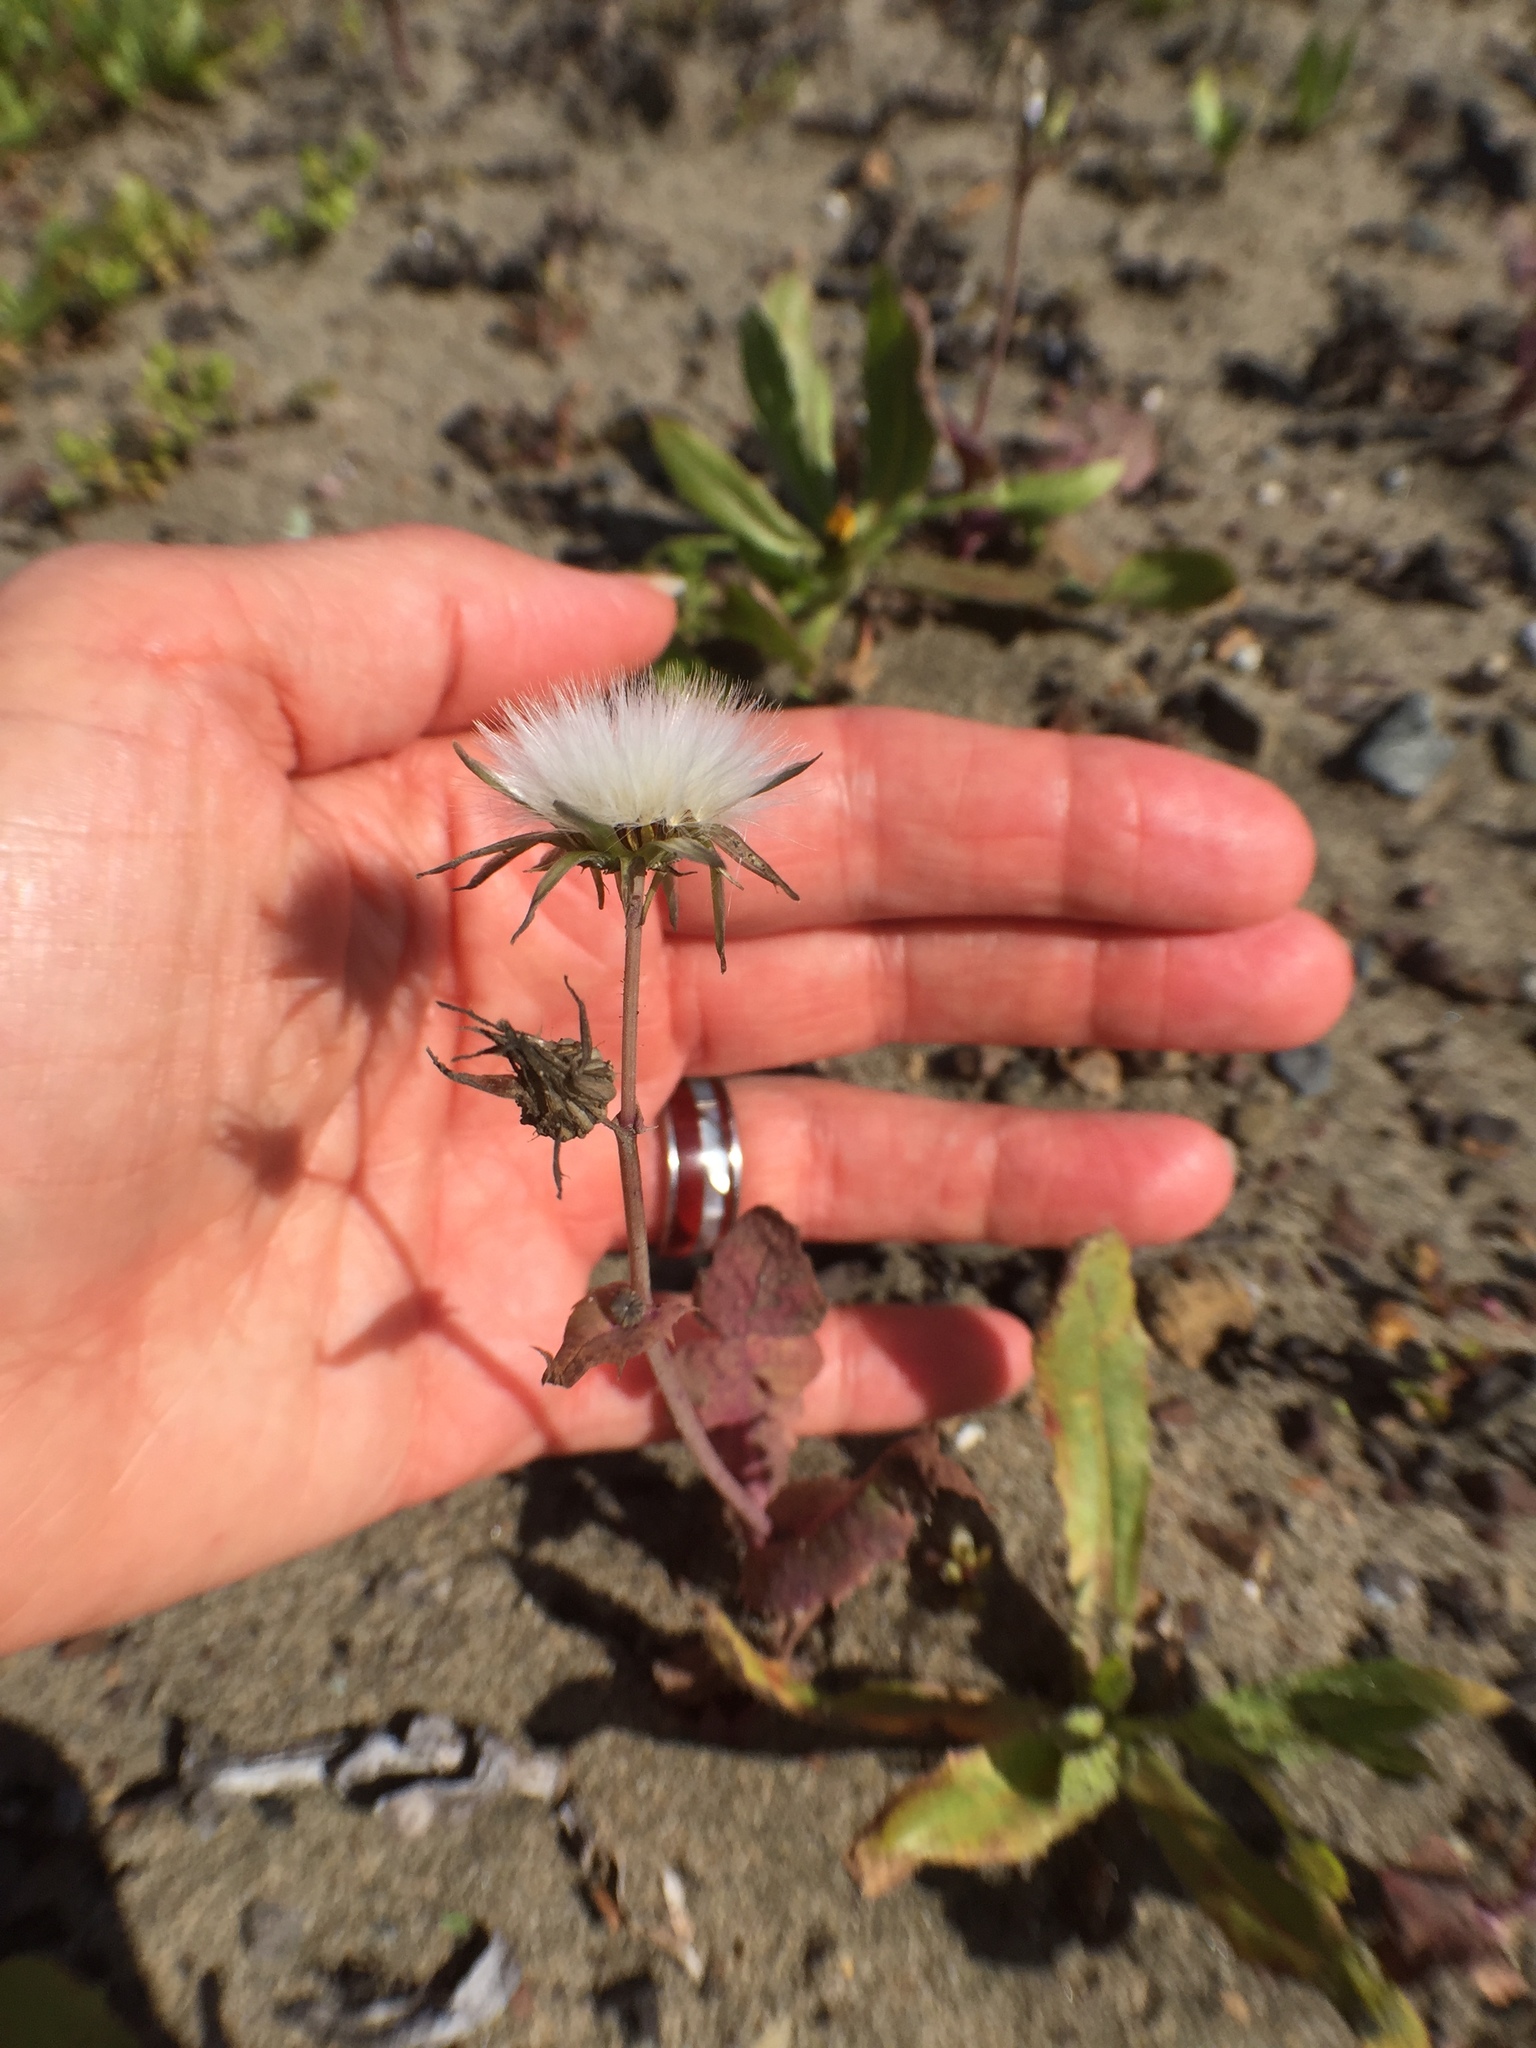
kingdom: Plantae
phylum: Tracheophyta
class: Magnoliopsida
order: Asterales
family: Asteraceae
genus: Sonchus
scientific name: Sonchus oleraceus
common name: Common sowthistle
